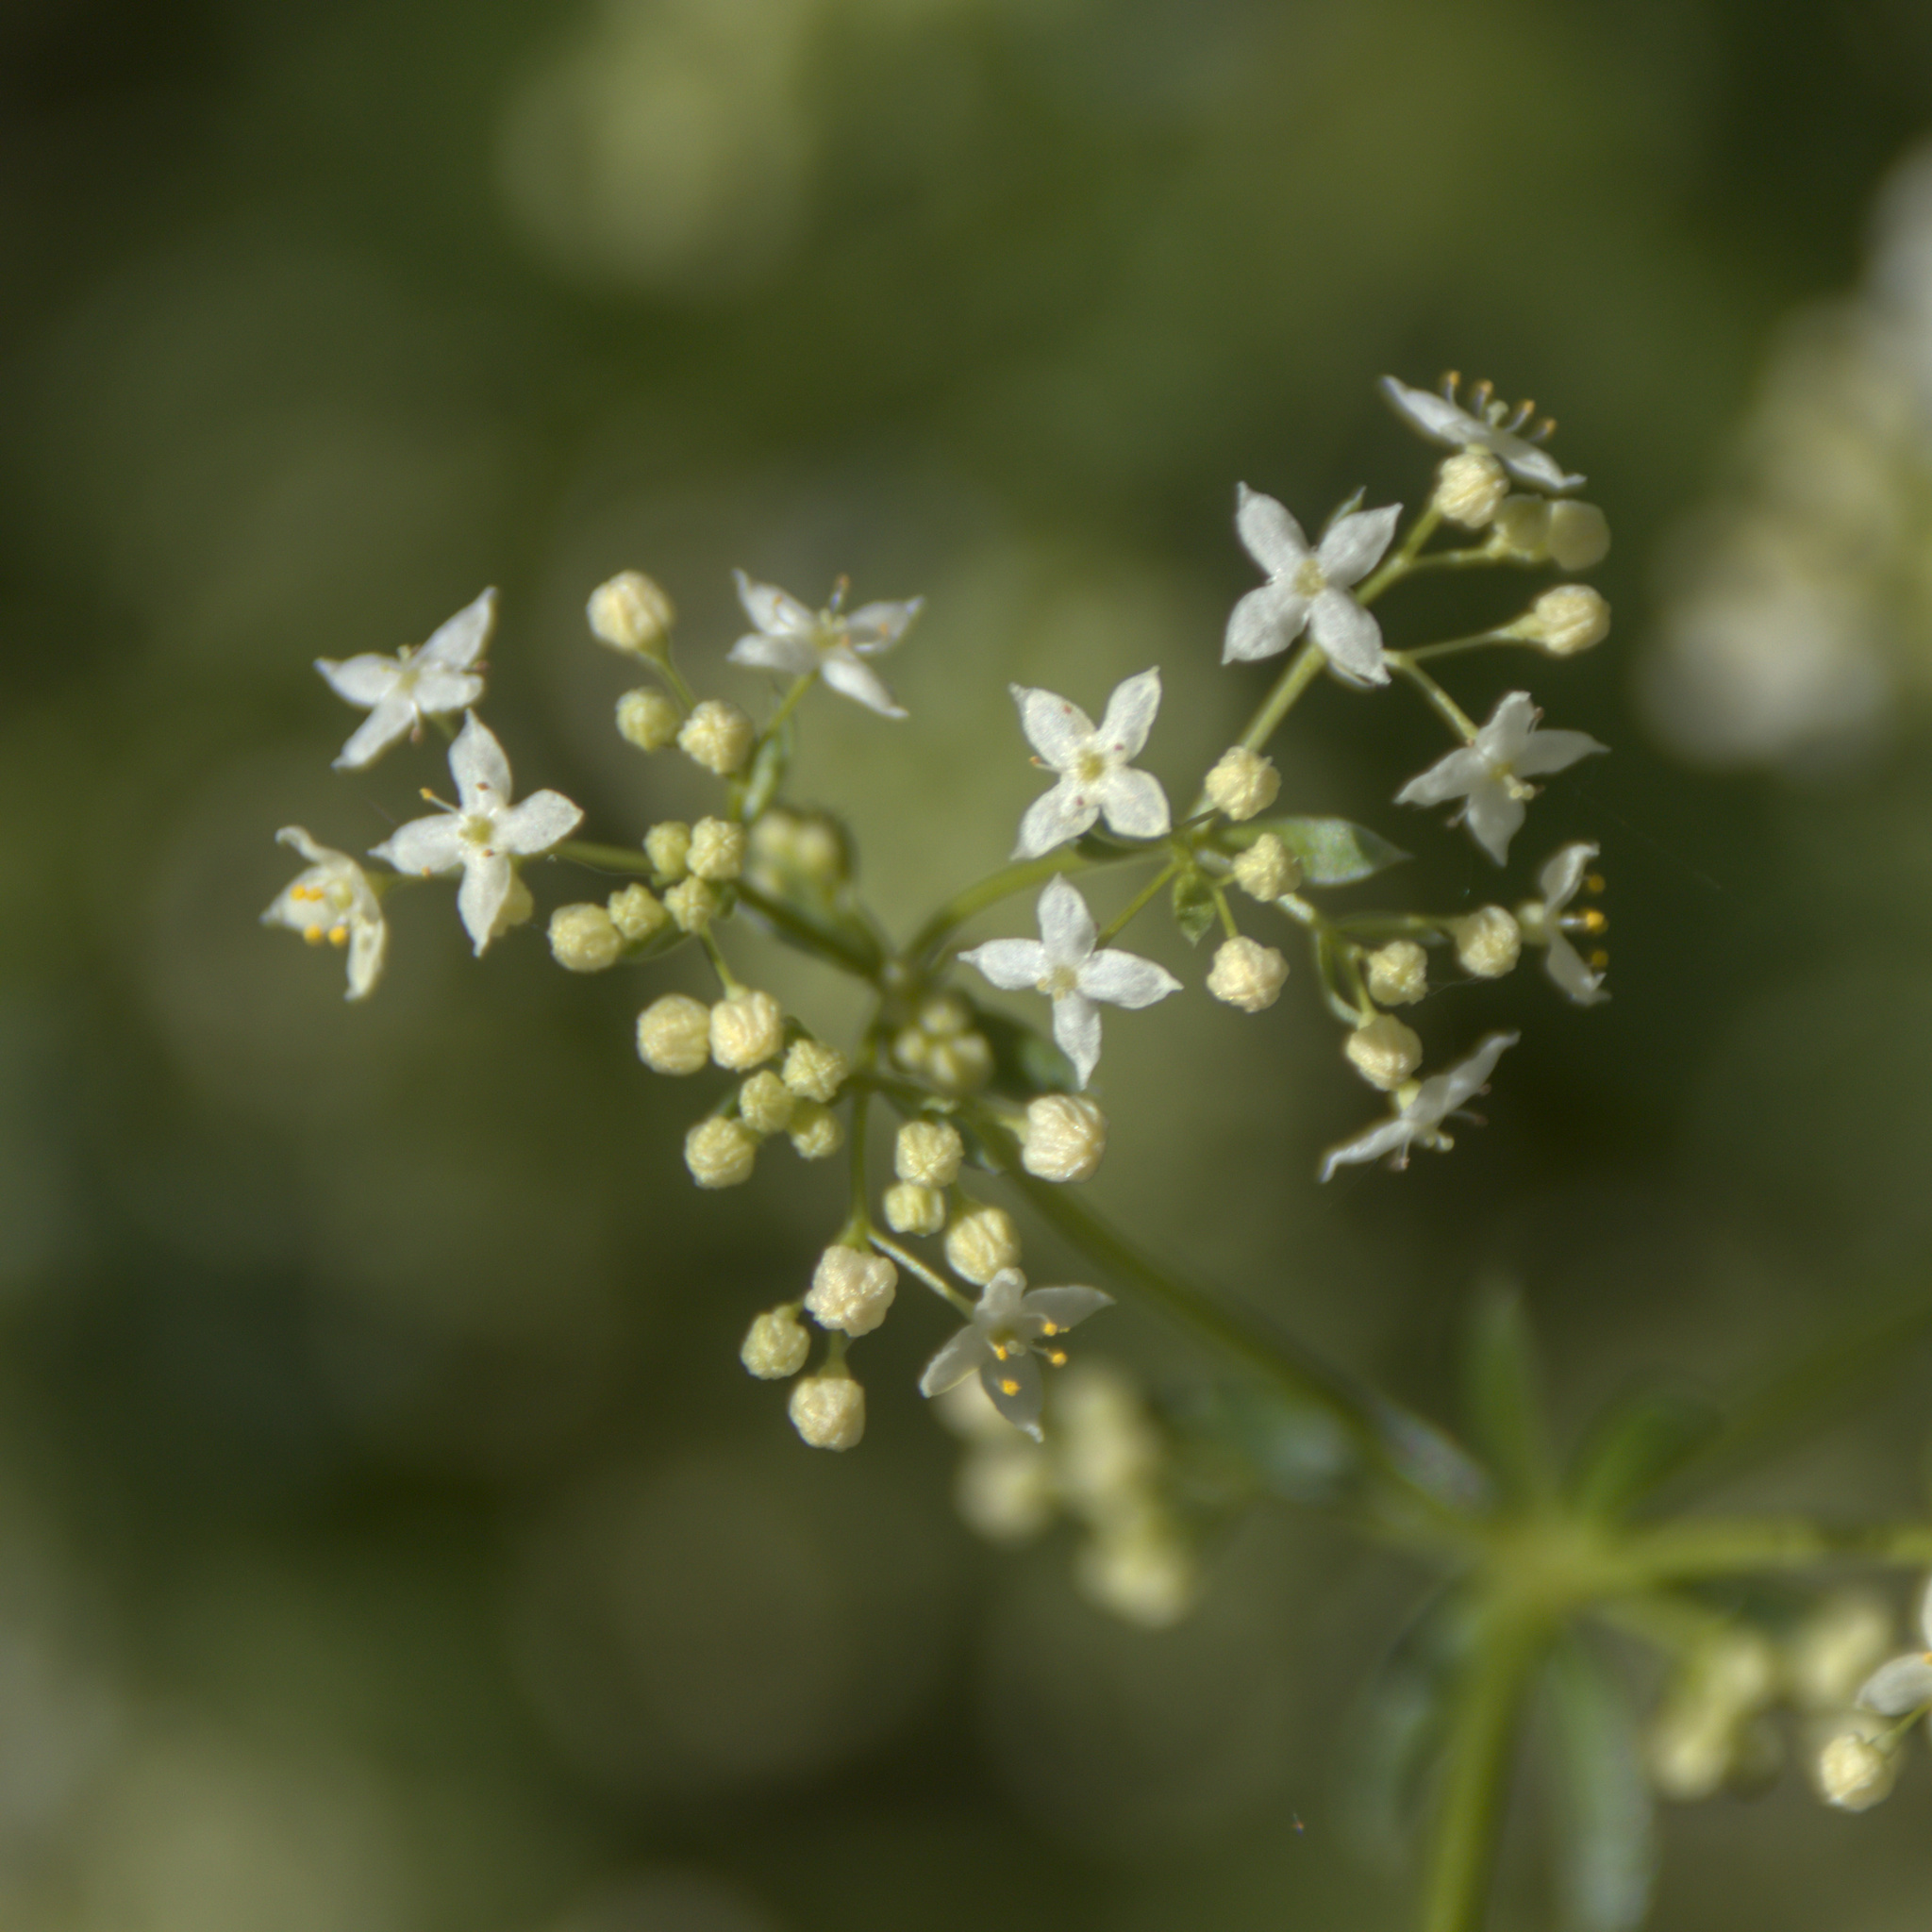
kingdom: Plantae
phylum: Tracheophyta
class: Magnoliopsida
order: Gentianales
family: Rubiaceae
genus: Galium
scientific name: Galium mollugo
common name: Hedge bedstraw
